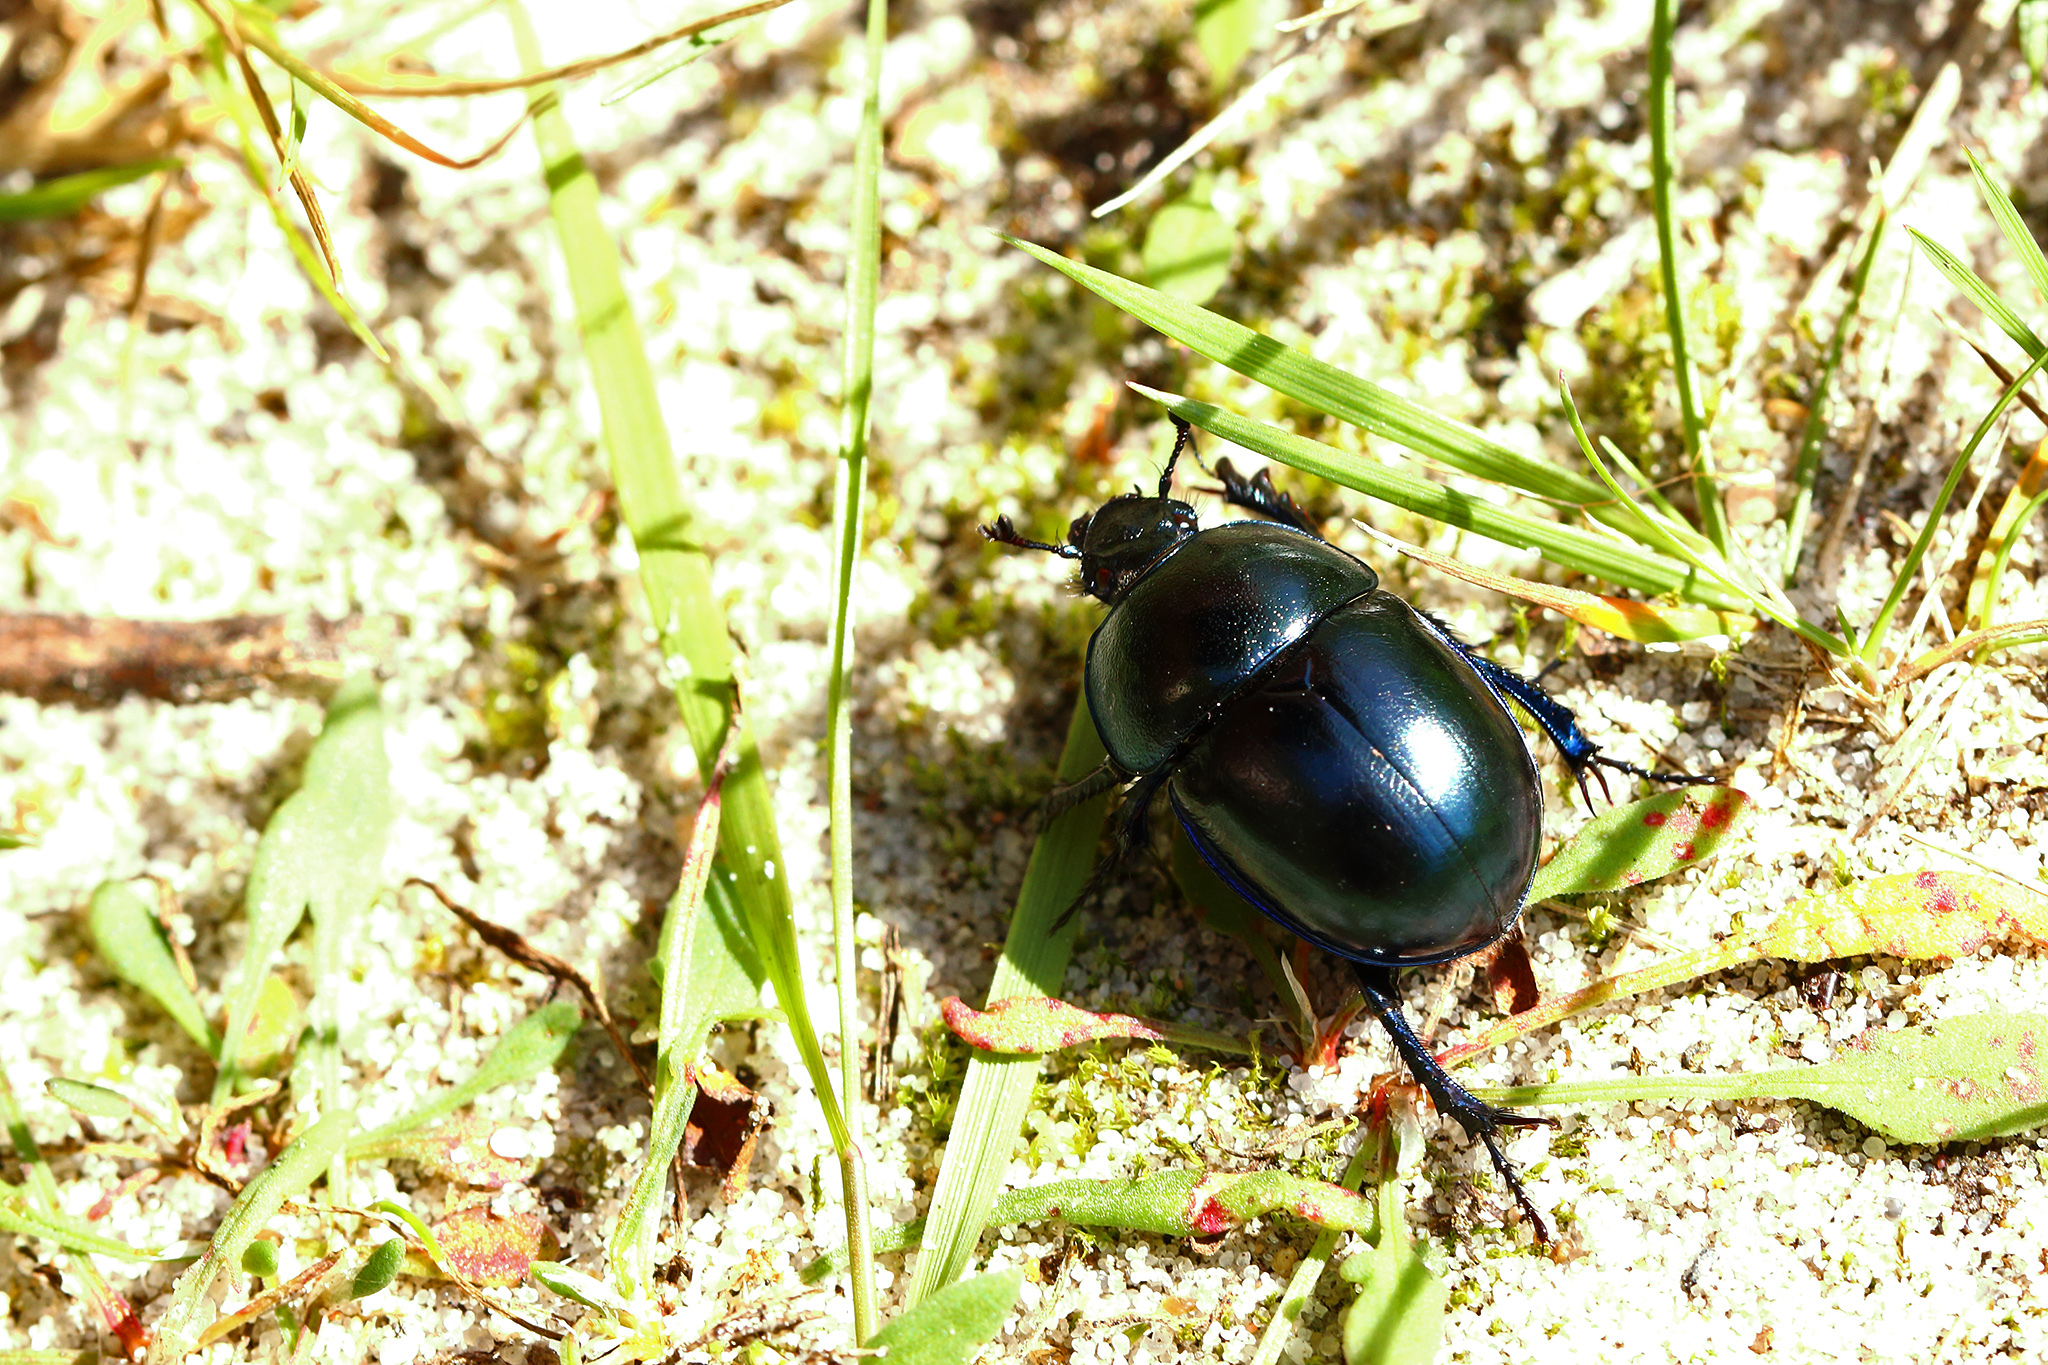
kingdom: Animalia
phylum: Arthropoda
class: Insecta
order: Coleoptera
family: Geotrupidae
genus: Trypocopris
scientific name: Trypocopris vernalis
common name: Spring dumbledor
